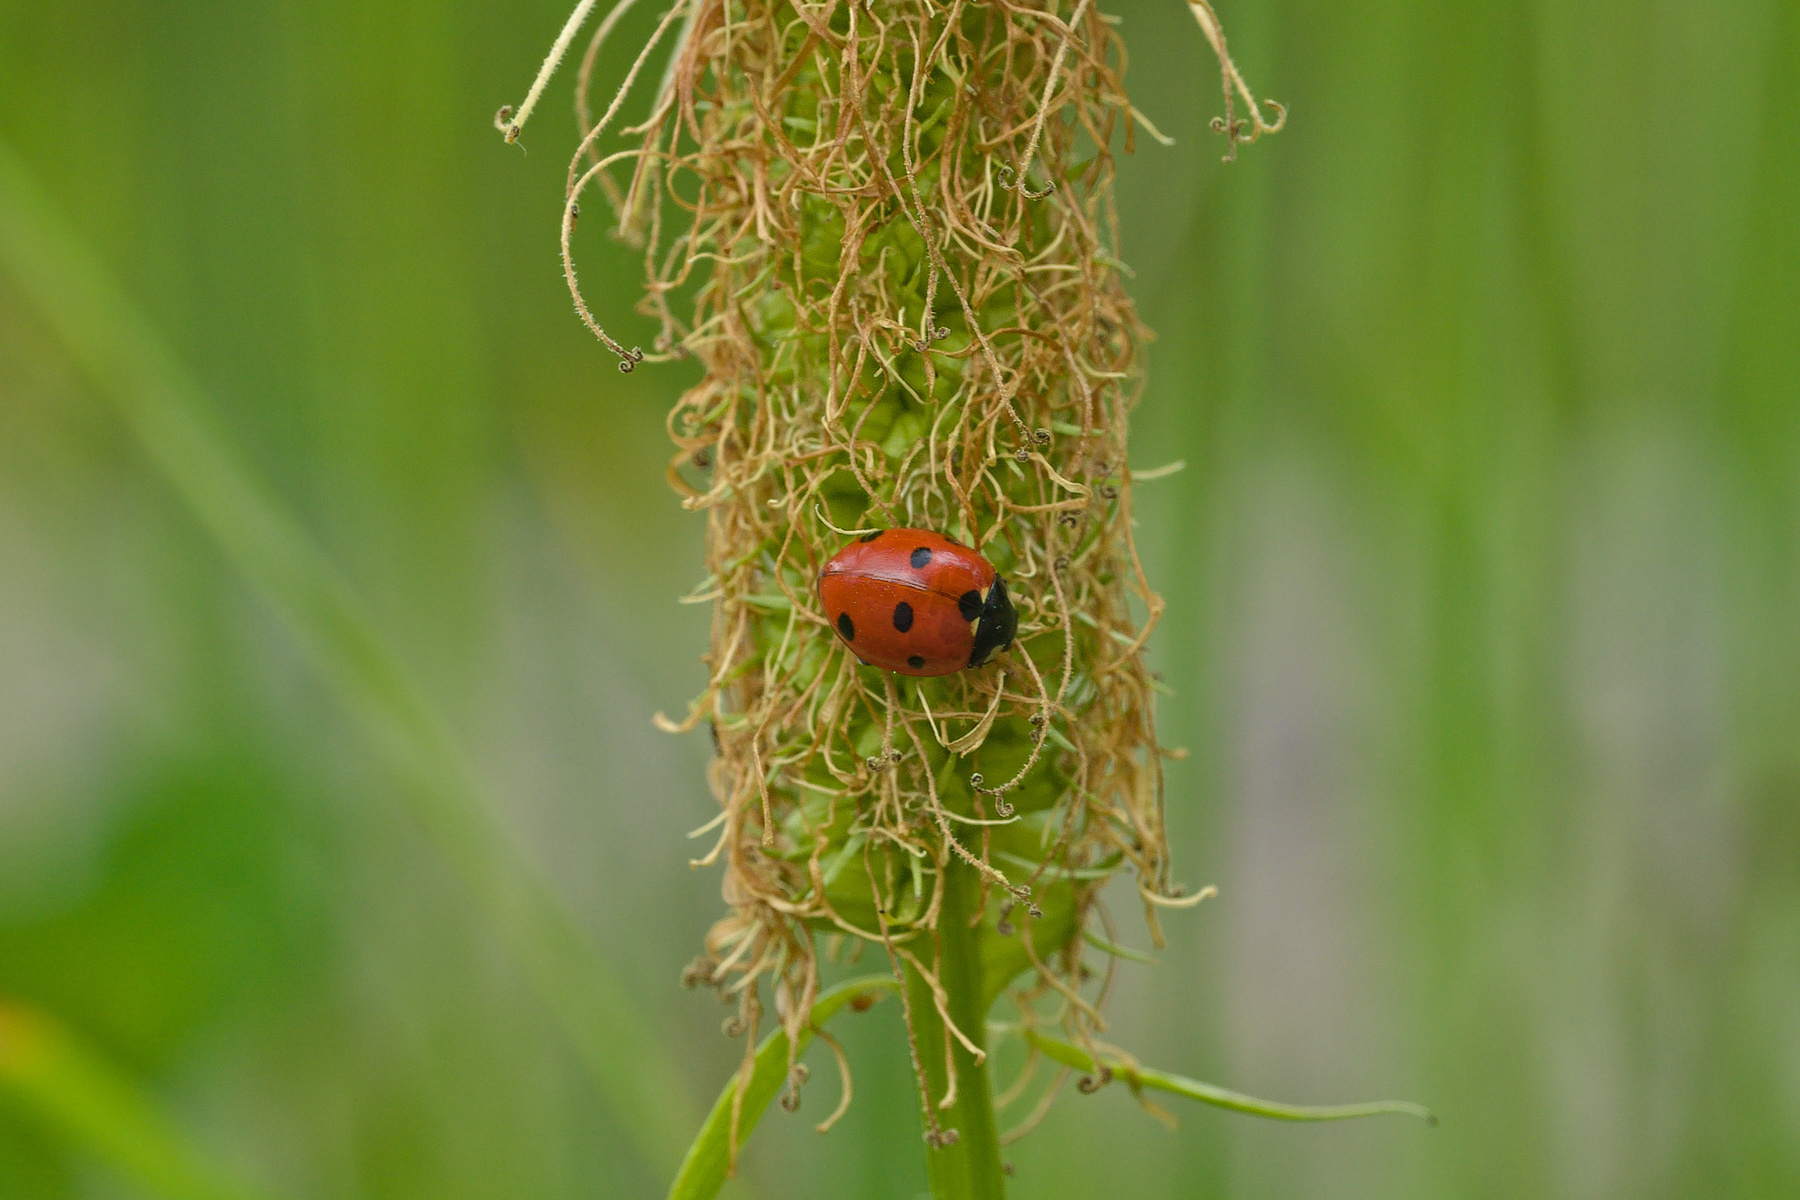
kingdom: Animalia
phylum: Arthropoda
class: Insecta
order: Coleoptera
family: Coccinellidae
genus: Coccinella
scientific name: Coccinella septempunctata
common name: Sevenspotted lady beetle
